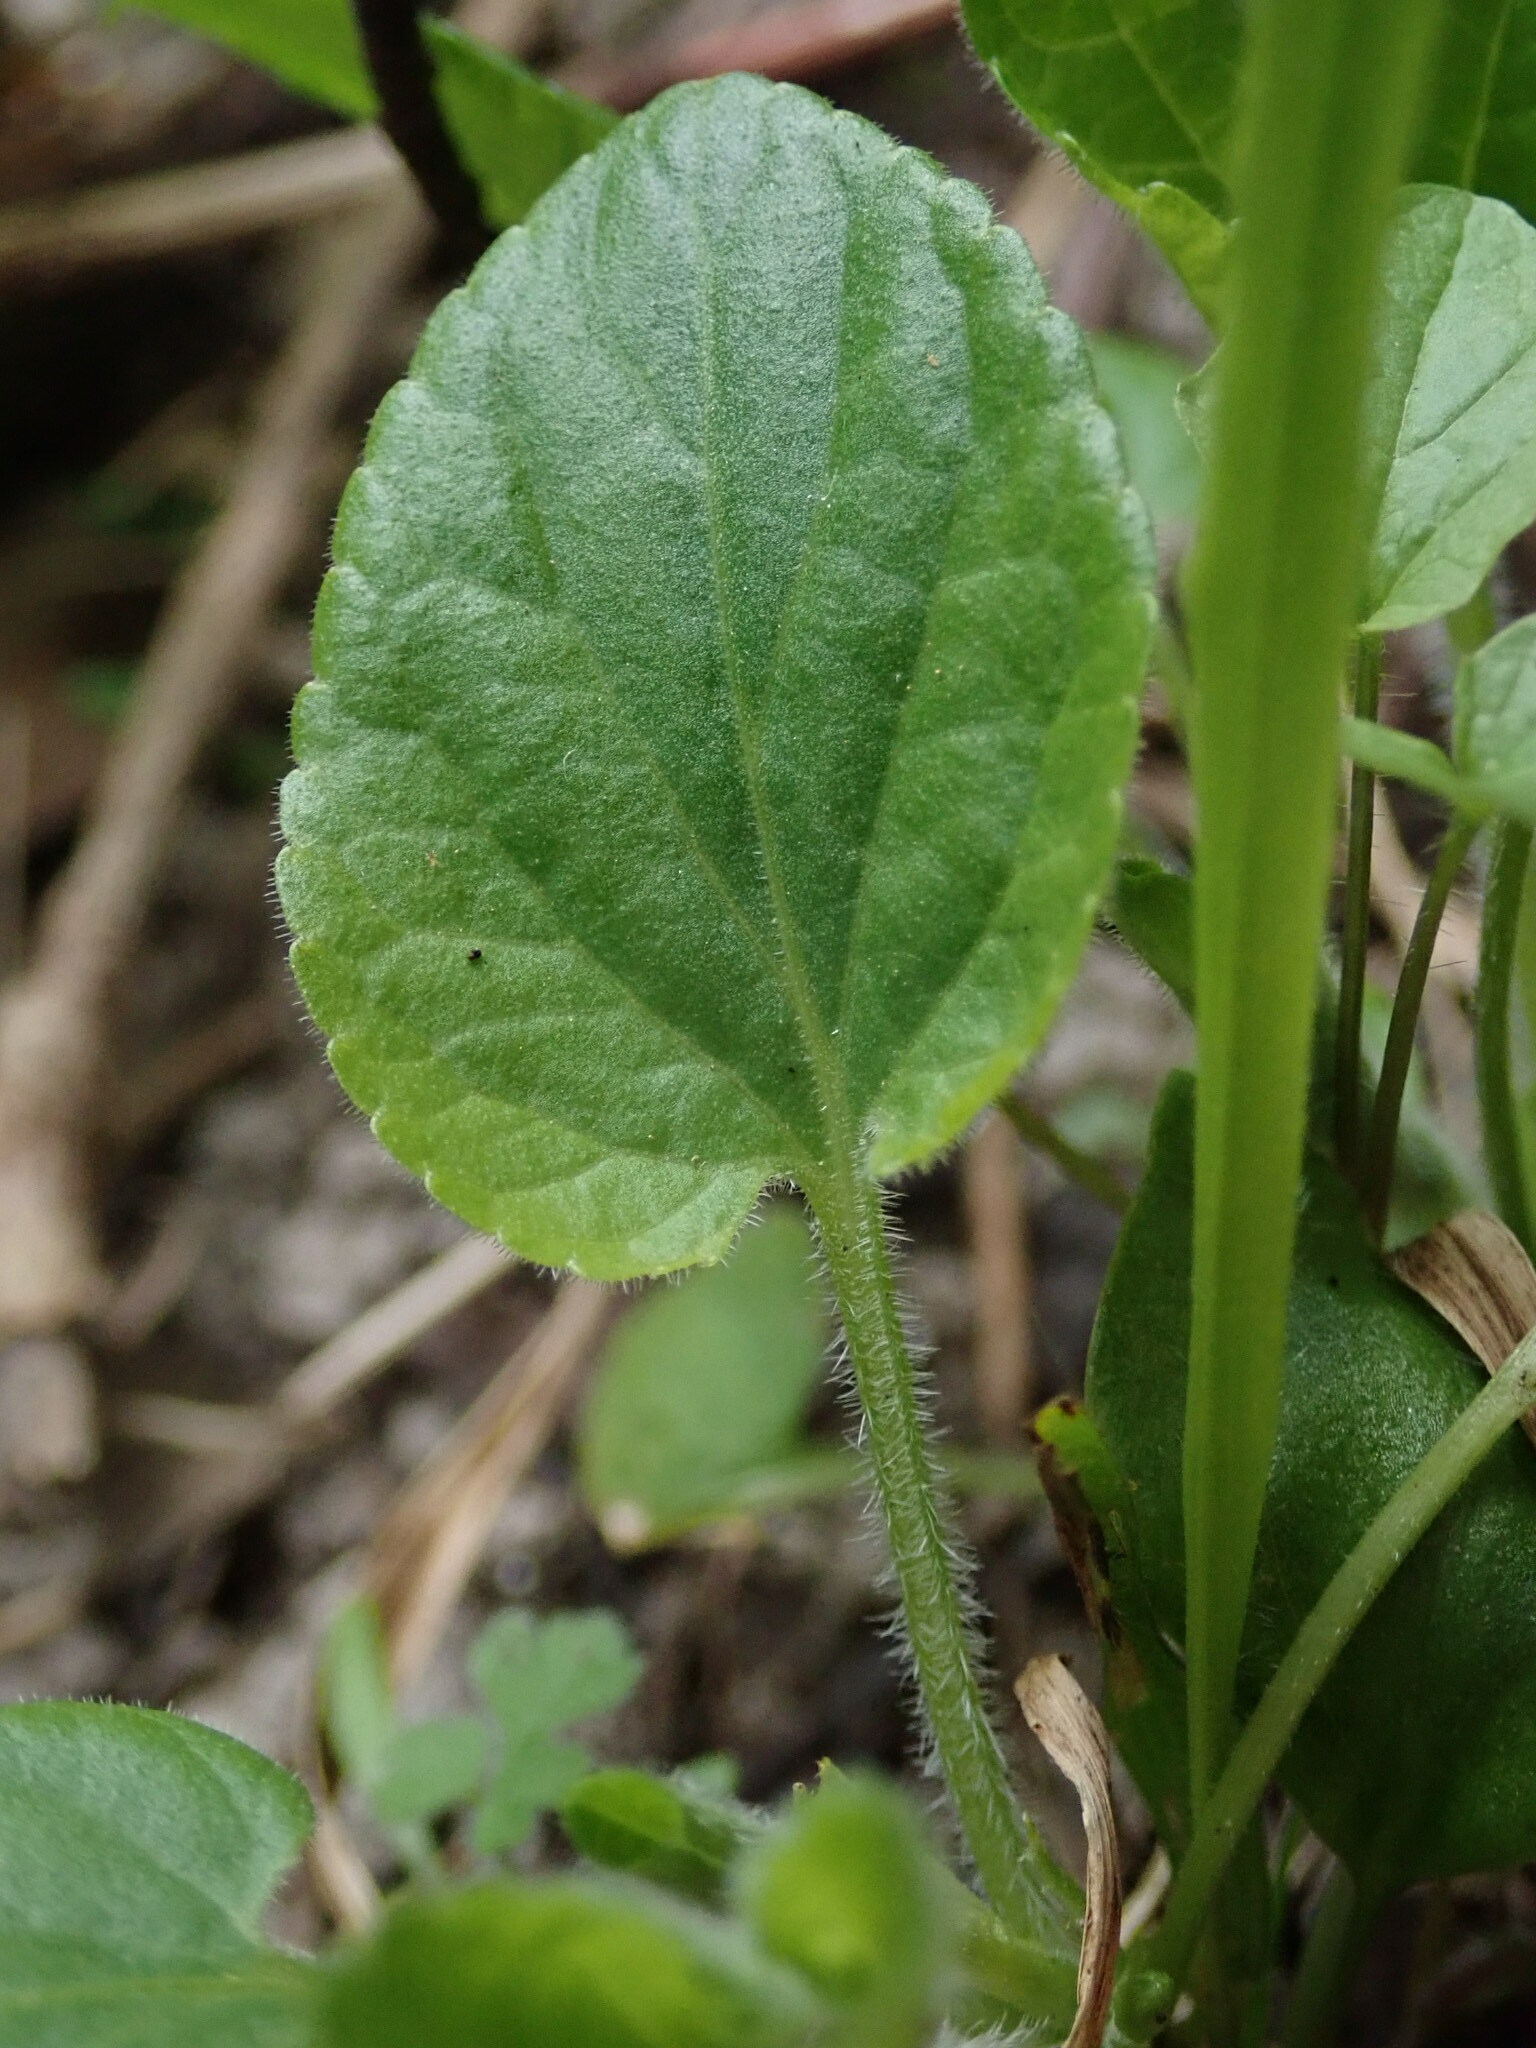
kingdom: Plantae
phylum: Tracheophyta
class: Magnoliopsida
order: Malpighiales
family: Violaceae
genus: Viola
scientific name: Viola hirta
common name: Hairy violet
